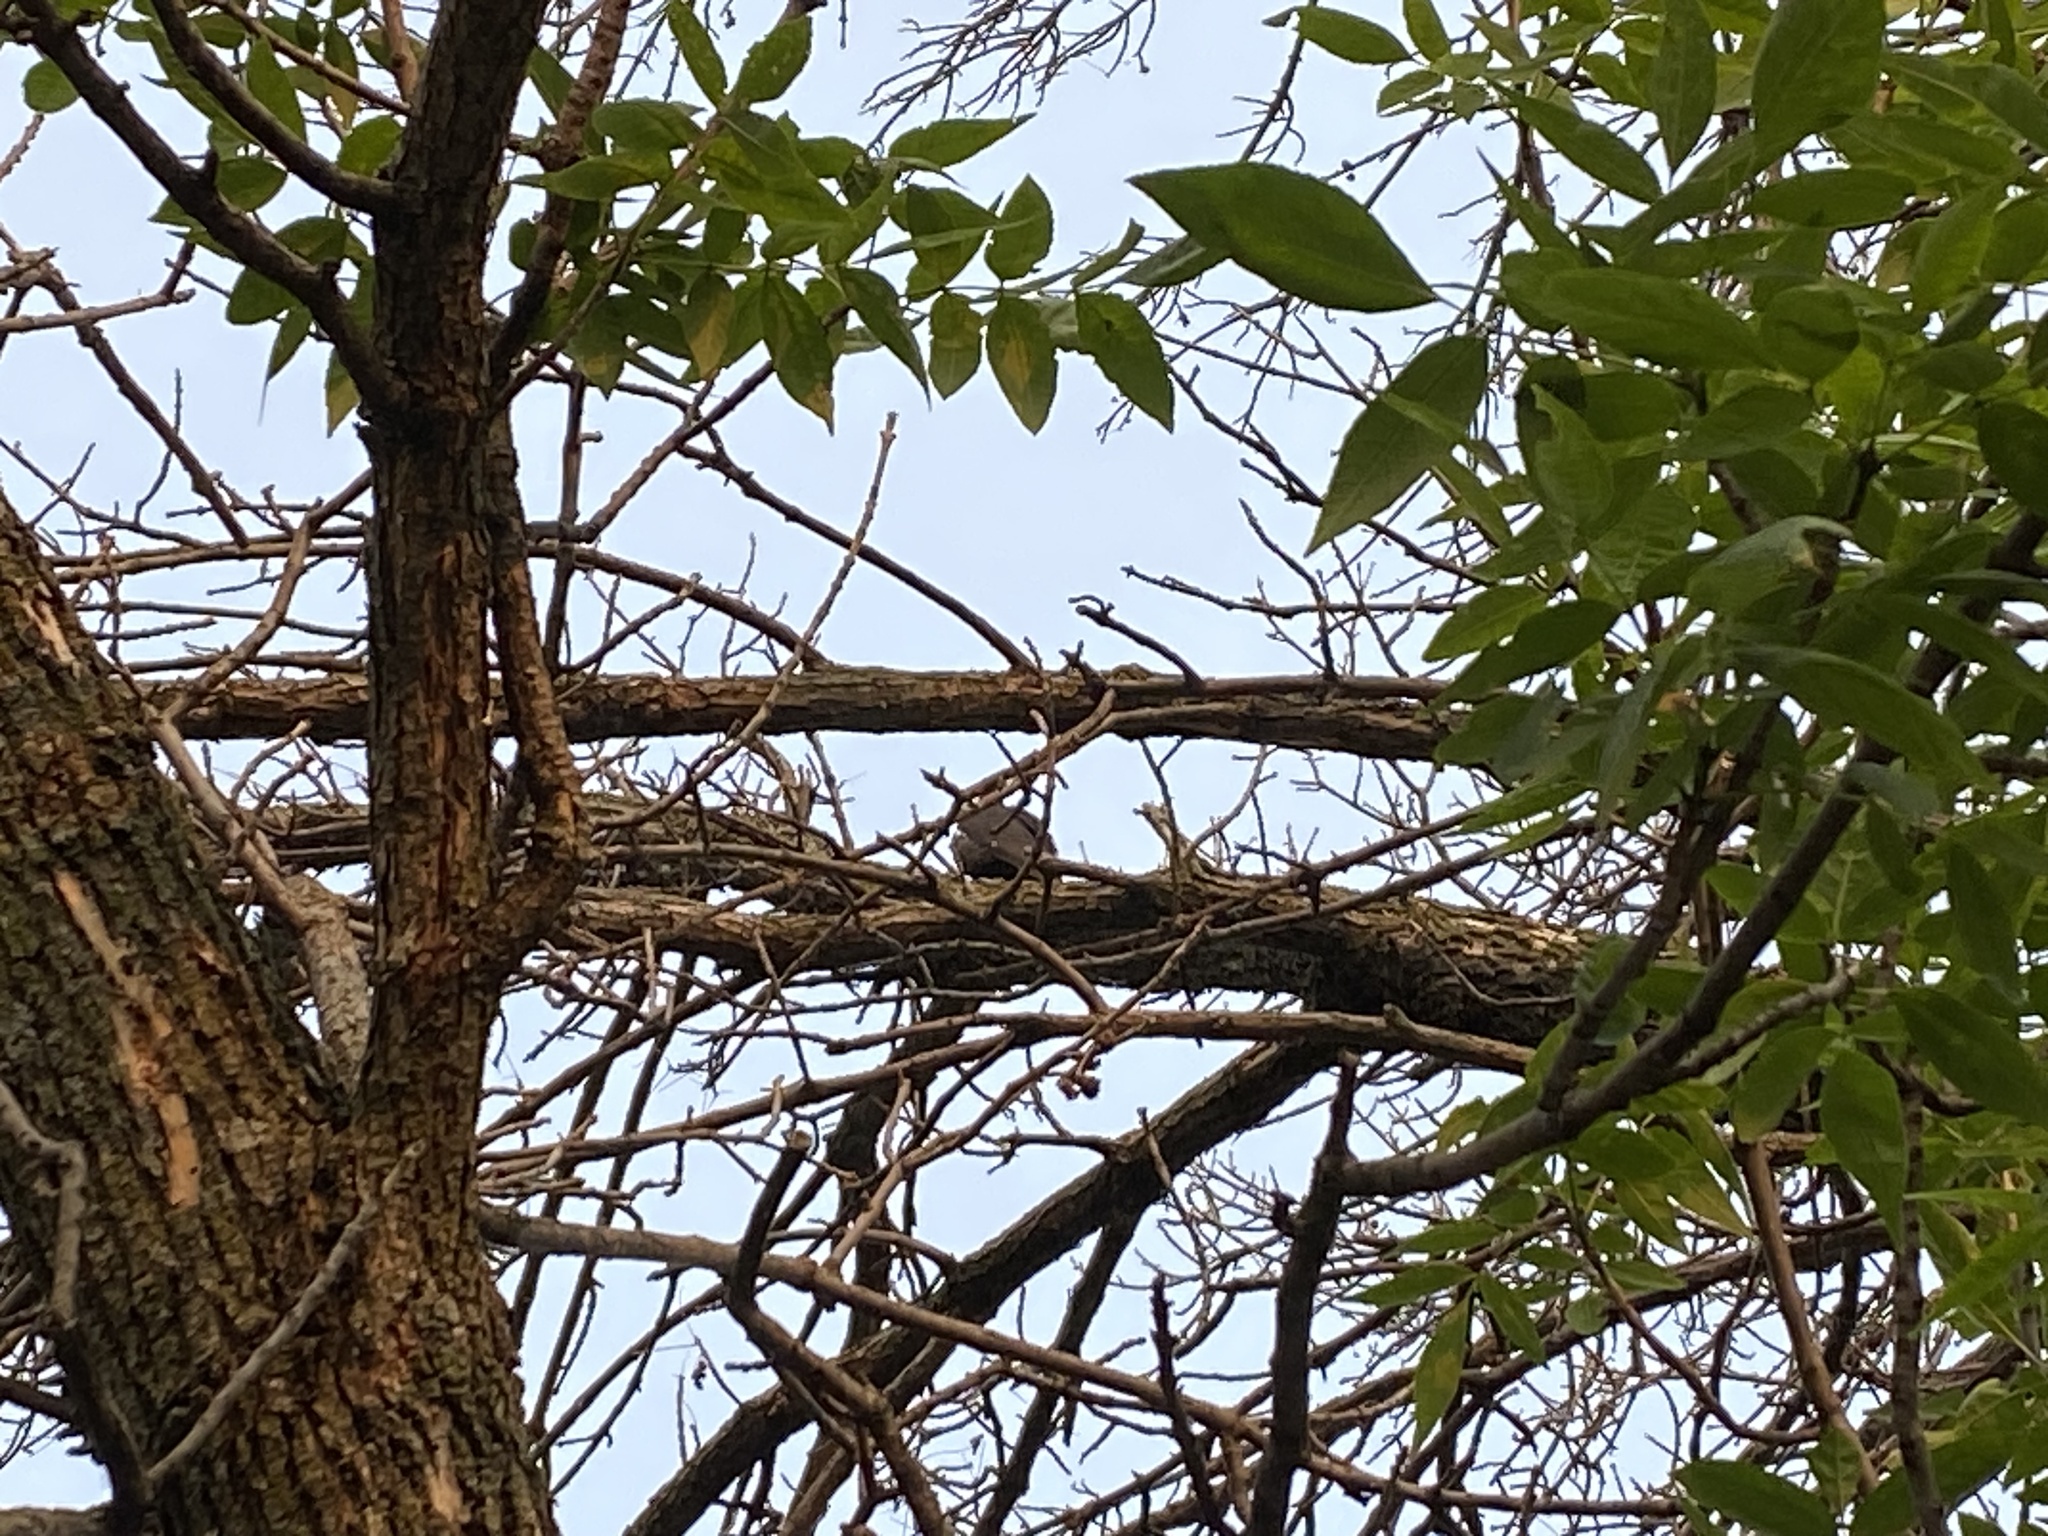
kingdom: Animalia
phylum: Chordata
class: Aves
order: Piciformes
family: Picidae
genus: Dryocopus
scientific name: Dryocopus pileatus
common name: Pileated woodpecker
